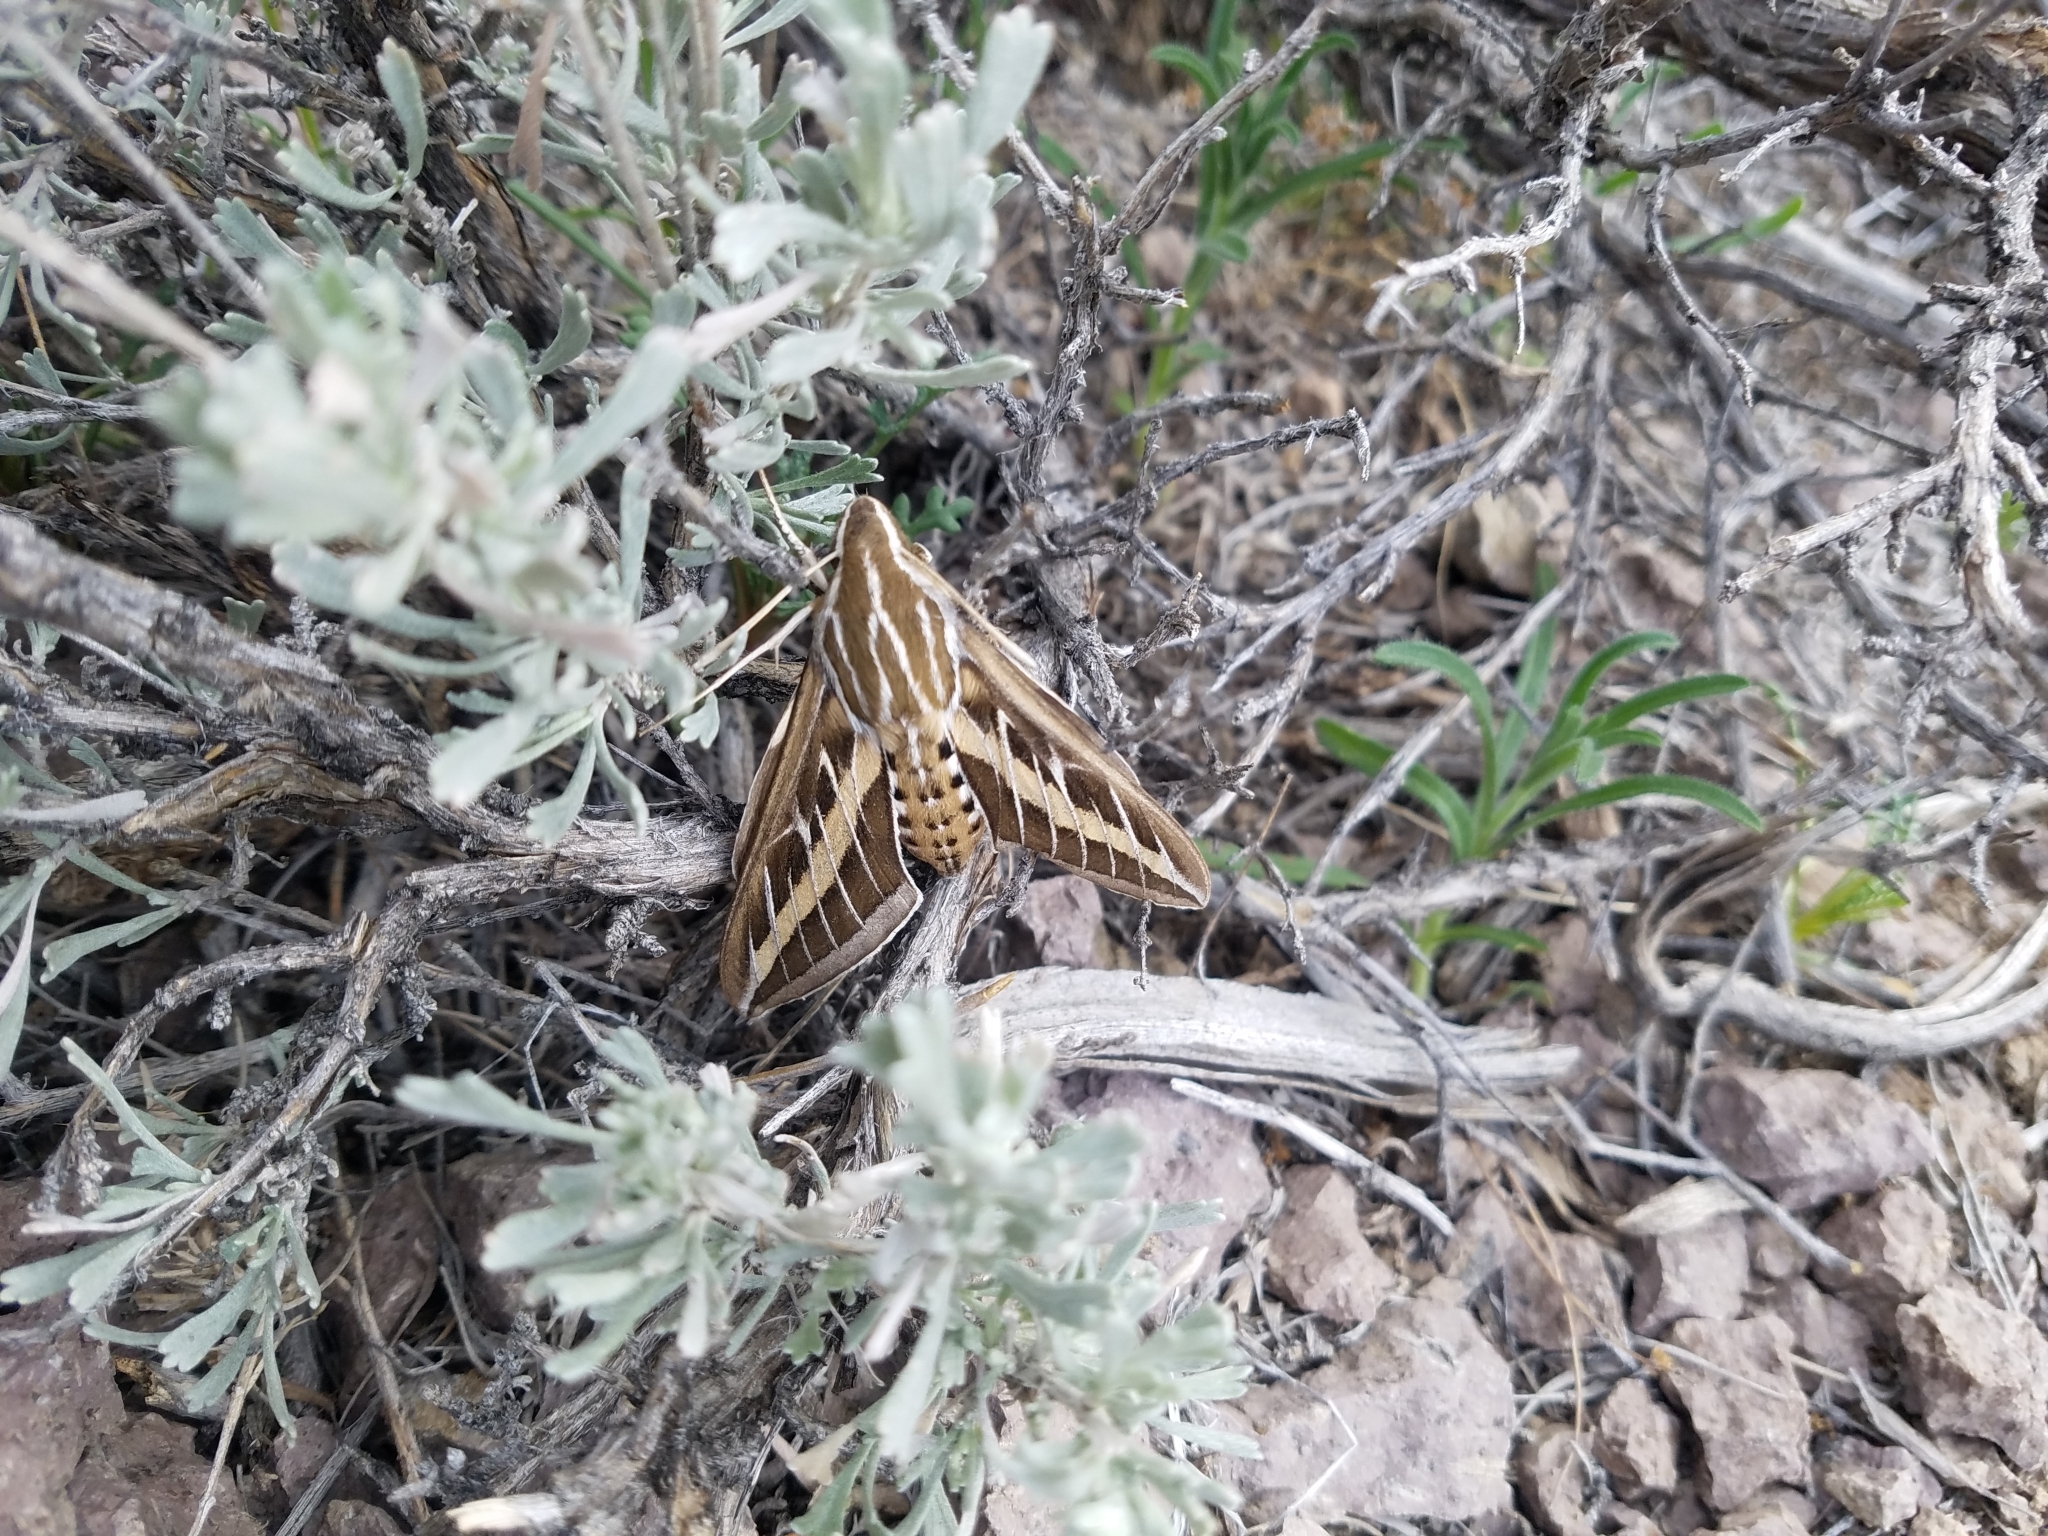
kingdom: Animalia
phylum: Arthropoda
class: Insecta
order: Lepidoptera
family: Sphingidae
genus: Hyles
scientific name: Hyles lineata
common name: White-lined sphinx
